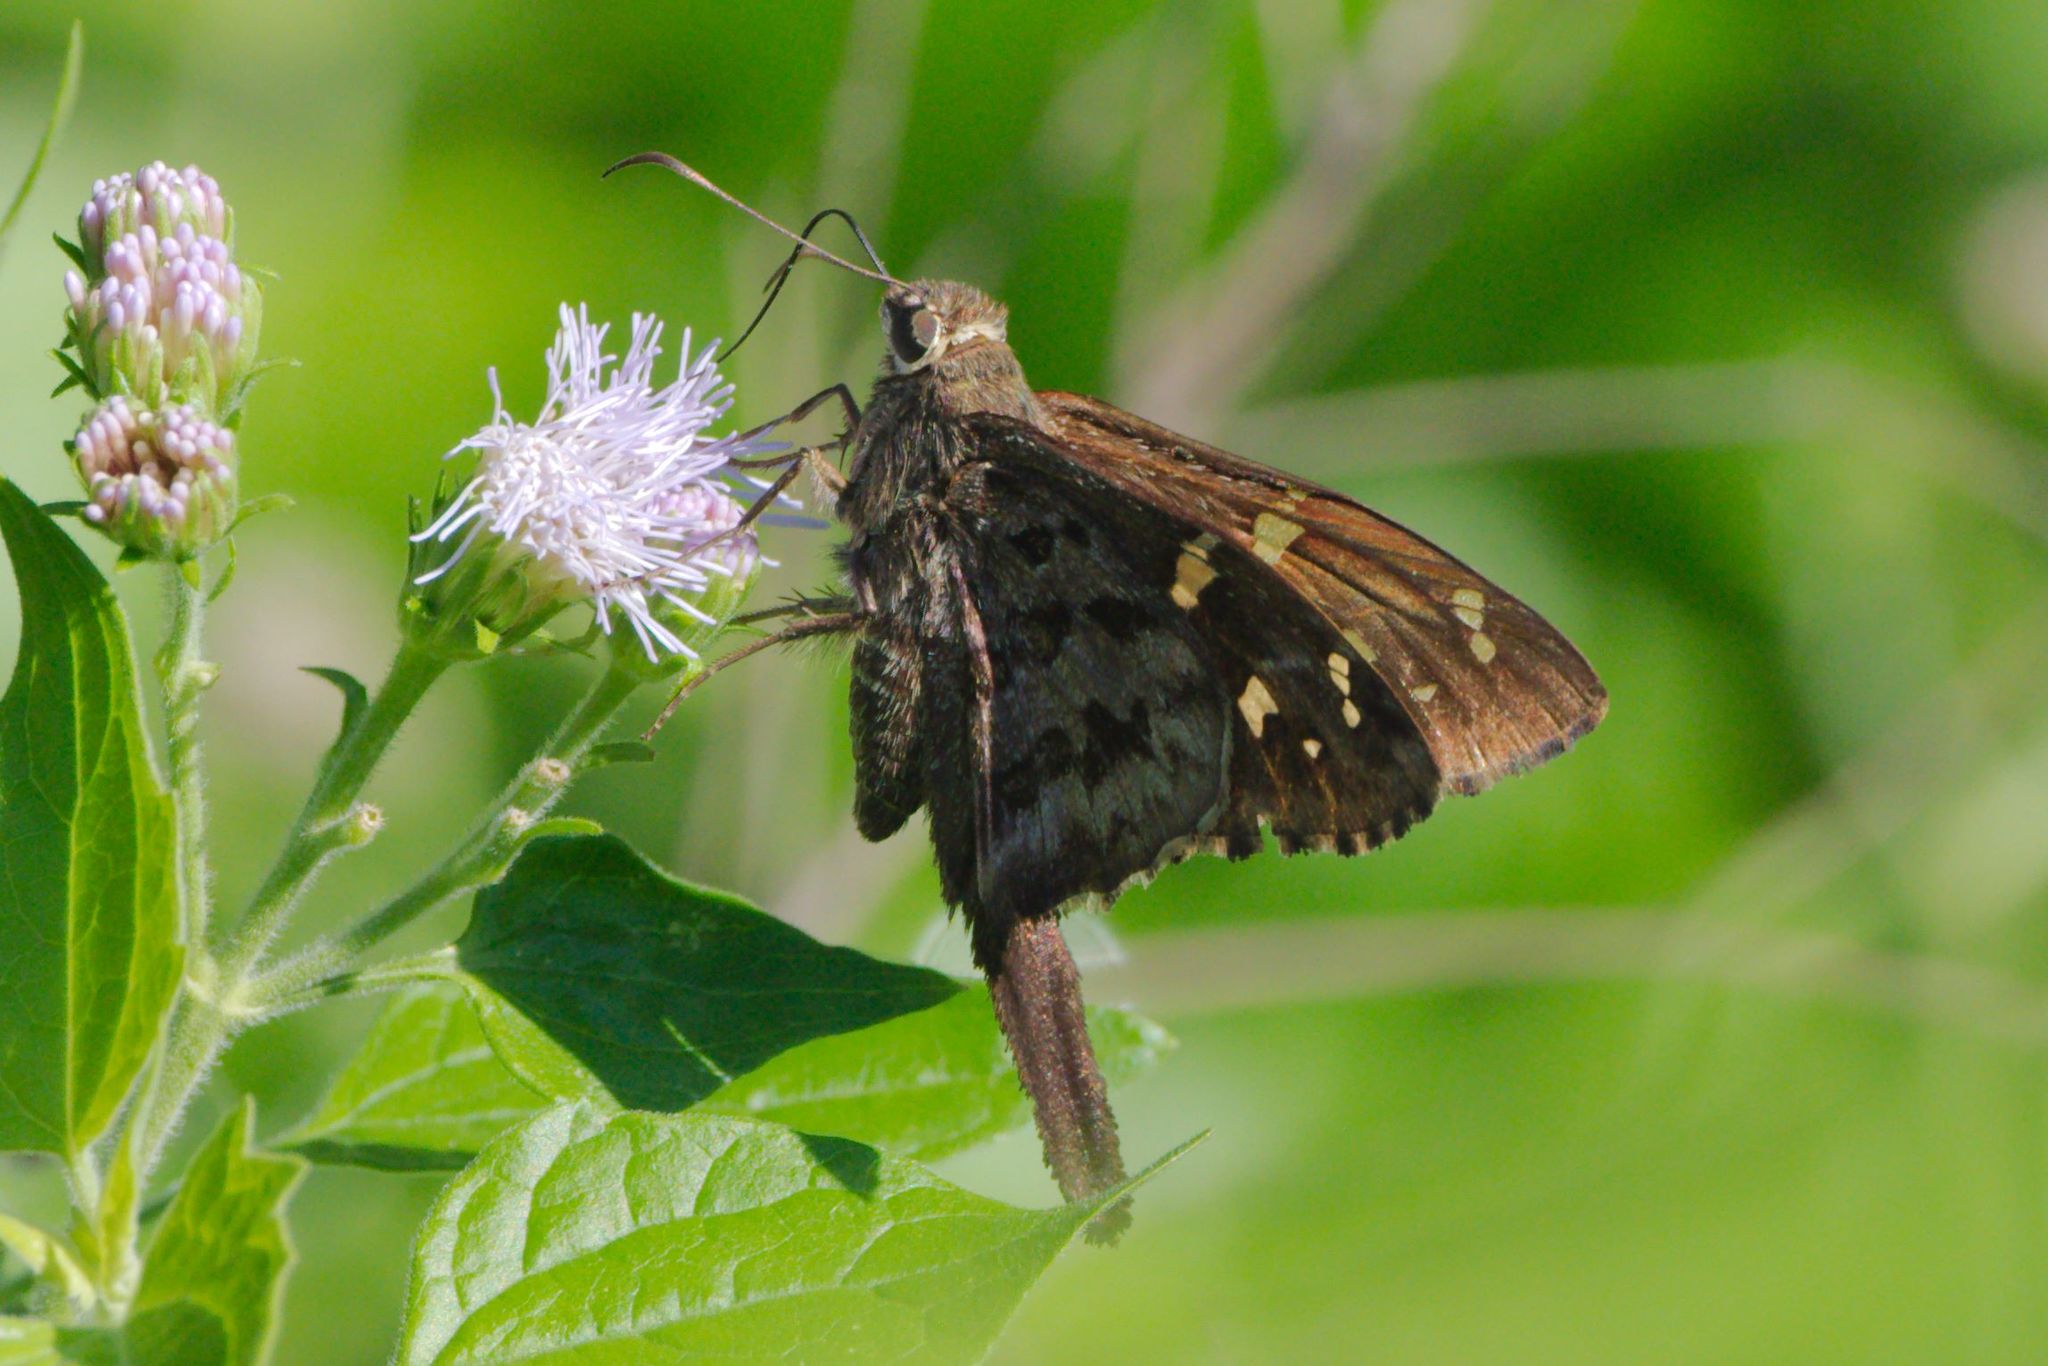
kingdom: Animalia
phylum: Arthropoda
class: Insecta
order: Lepidoptera
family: Hesperiidae
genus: Thorybes
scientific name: Thorybes
